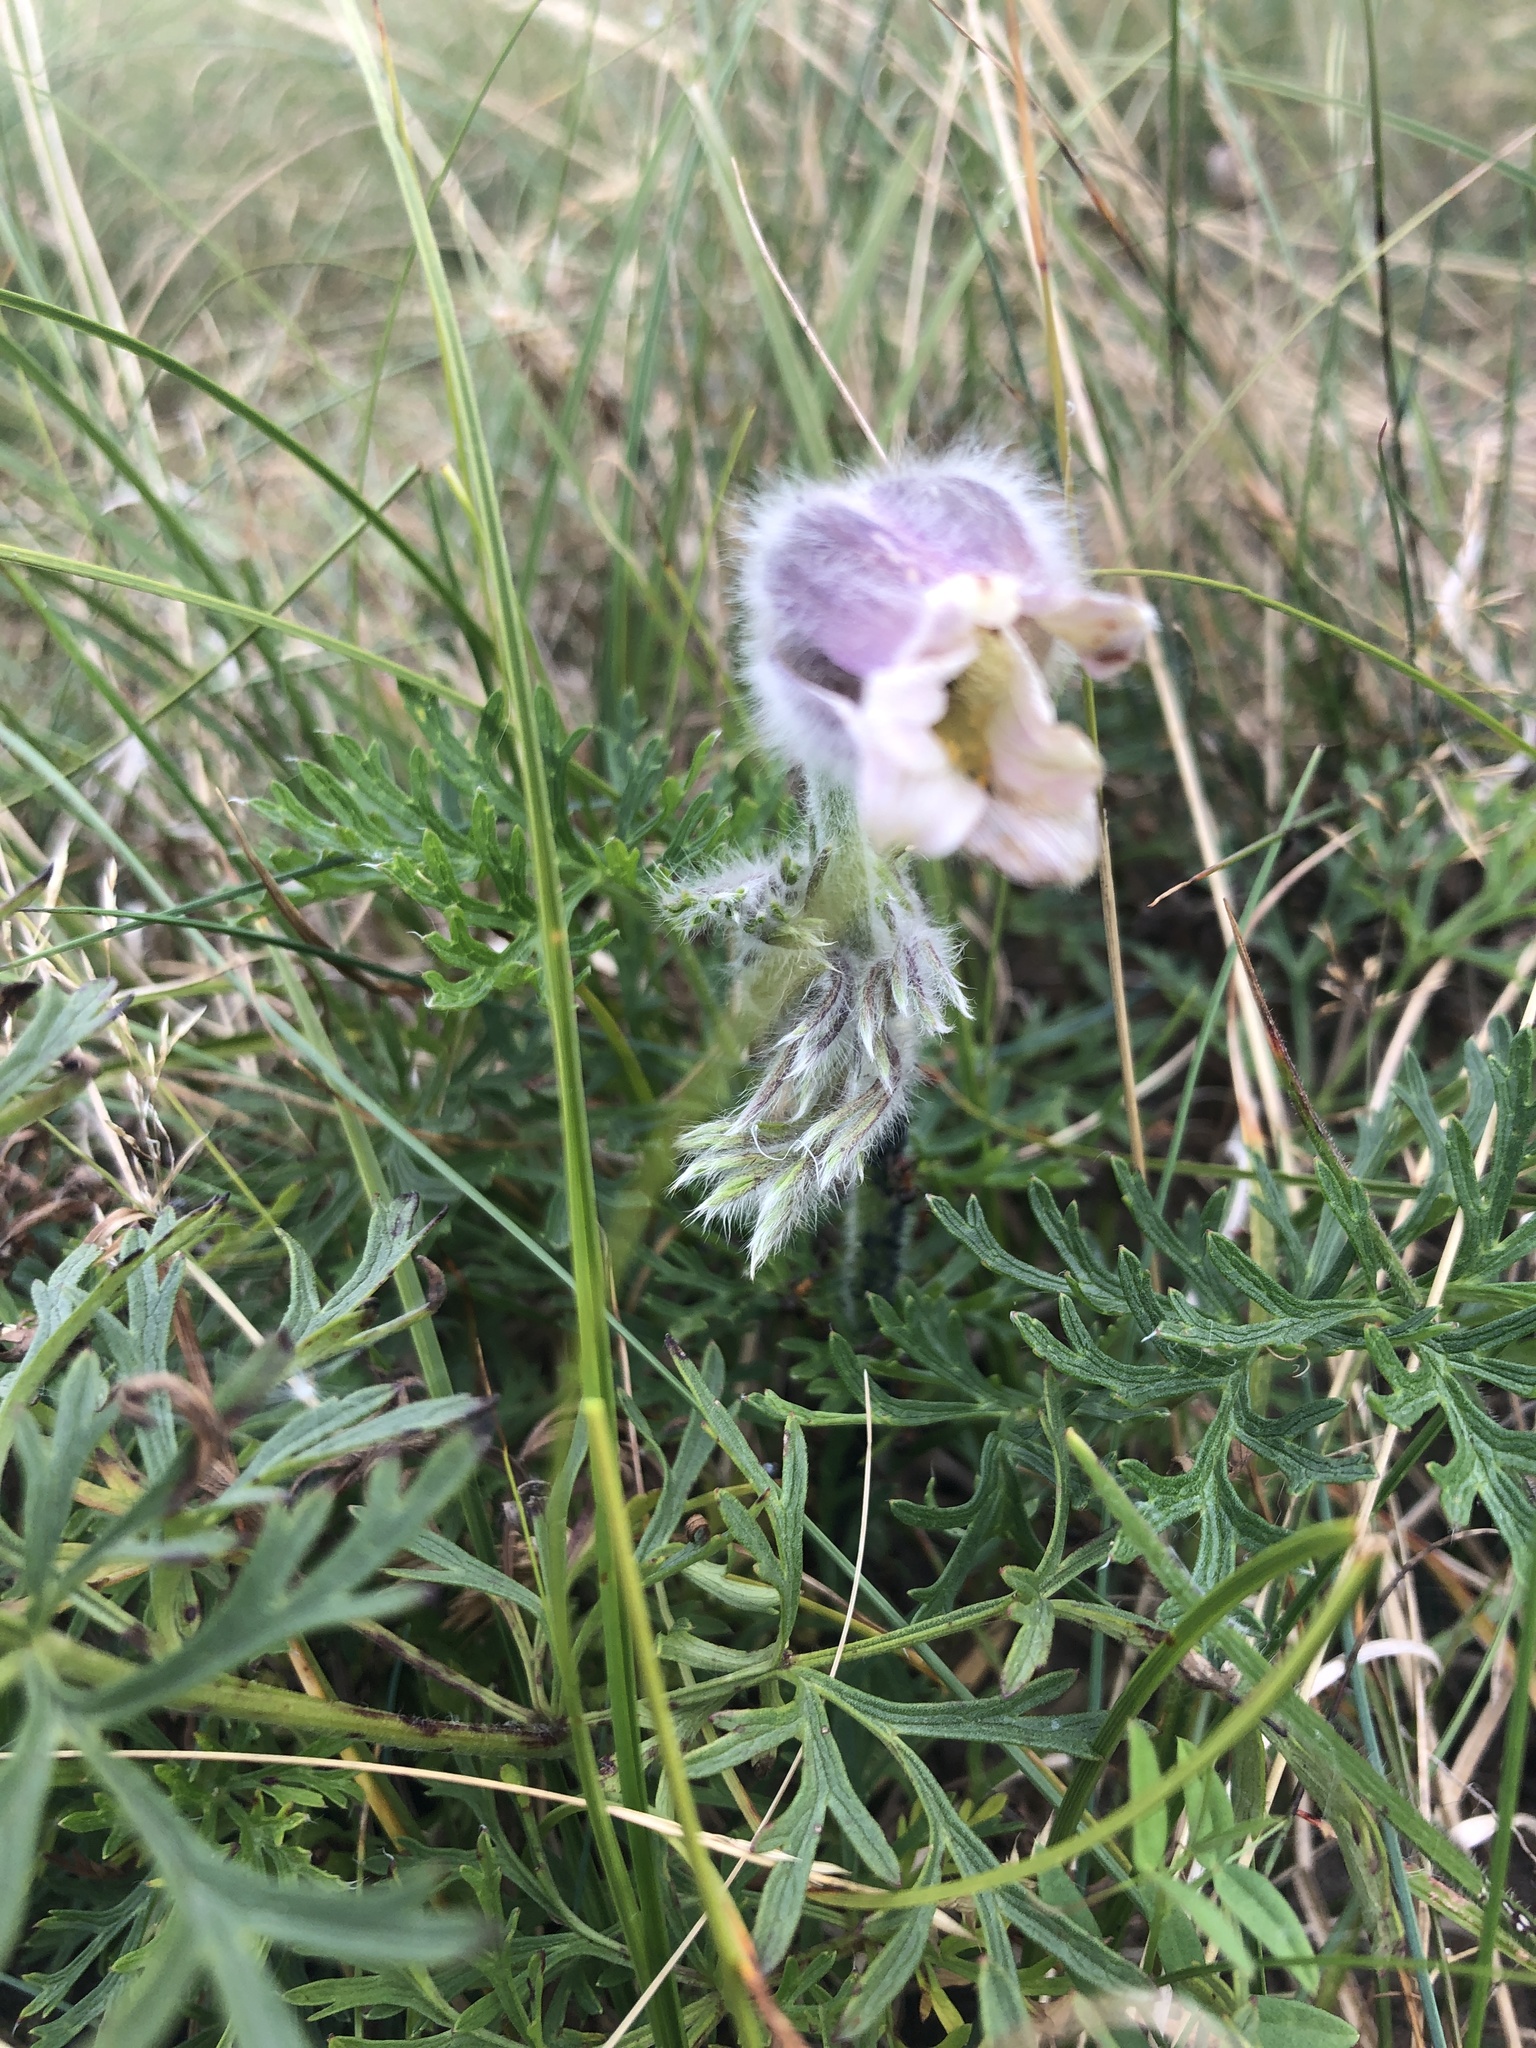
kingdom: Plantae
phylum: Tracheophyta
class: Magnoliopsida
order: Ranunculales
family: Ranunculaceae
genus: Pulsatilla
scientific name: Pulsatilla pratensis
